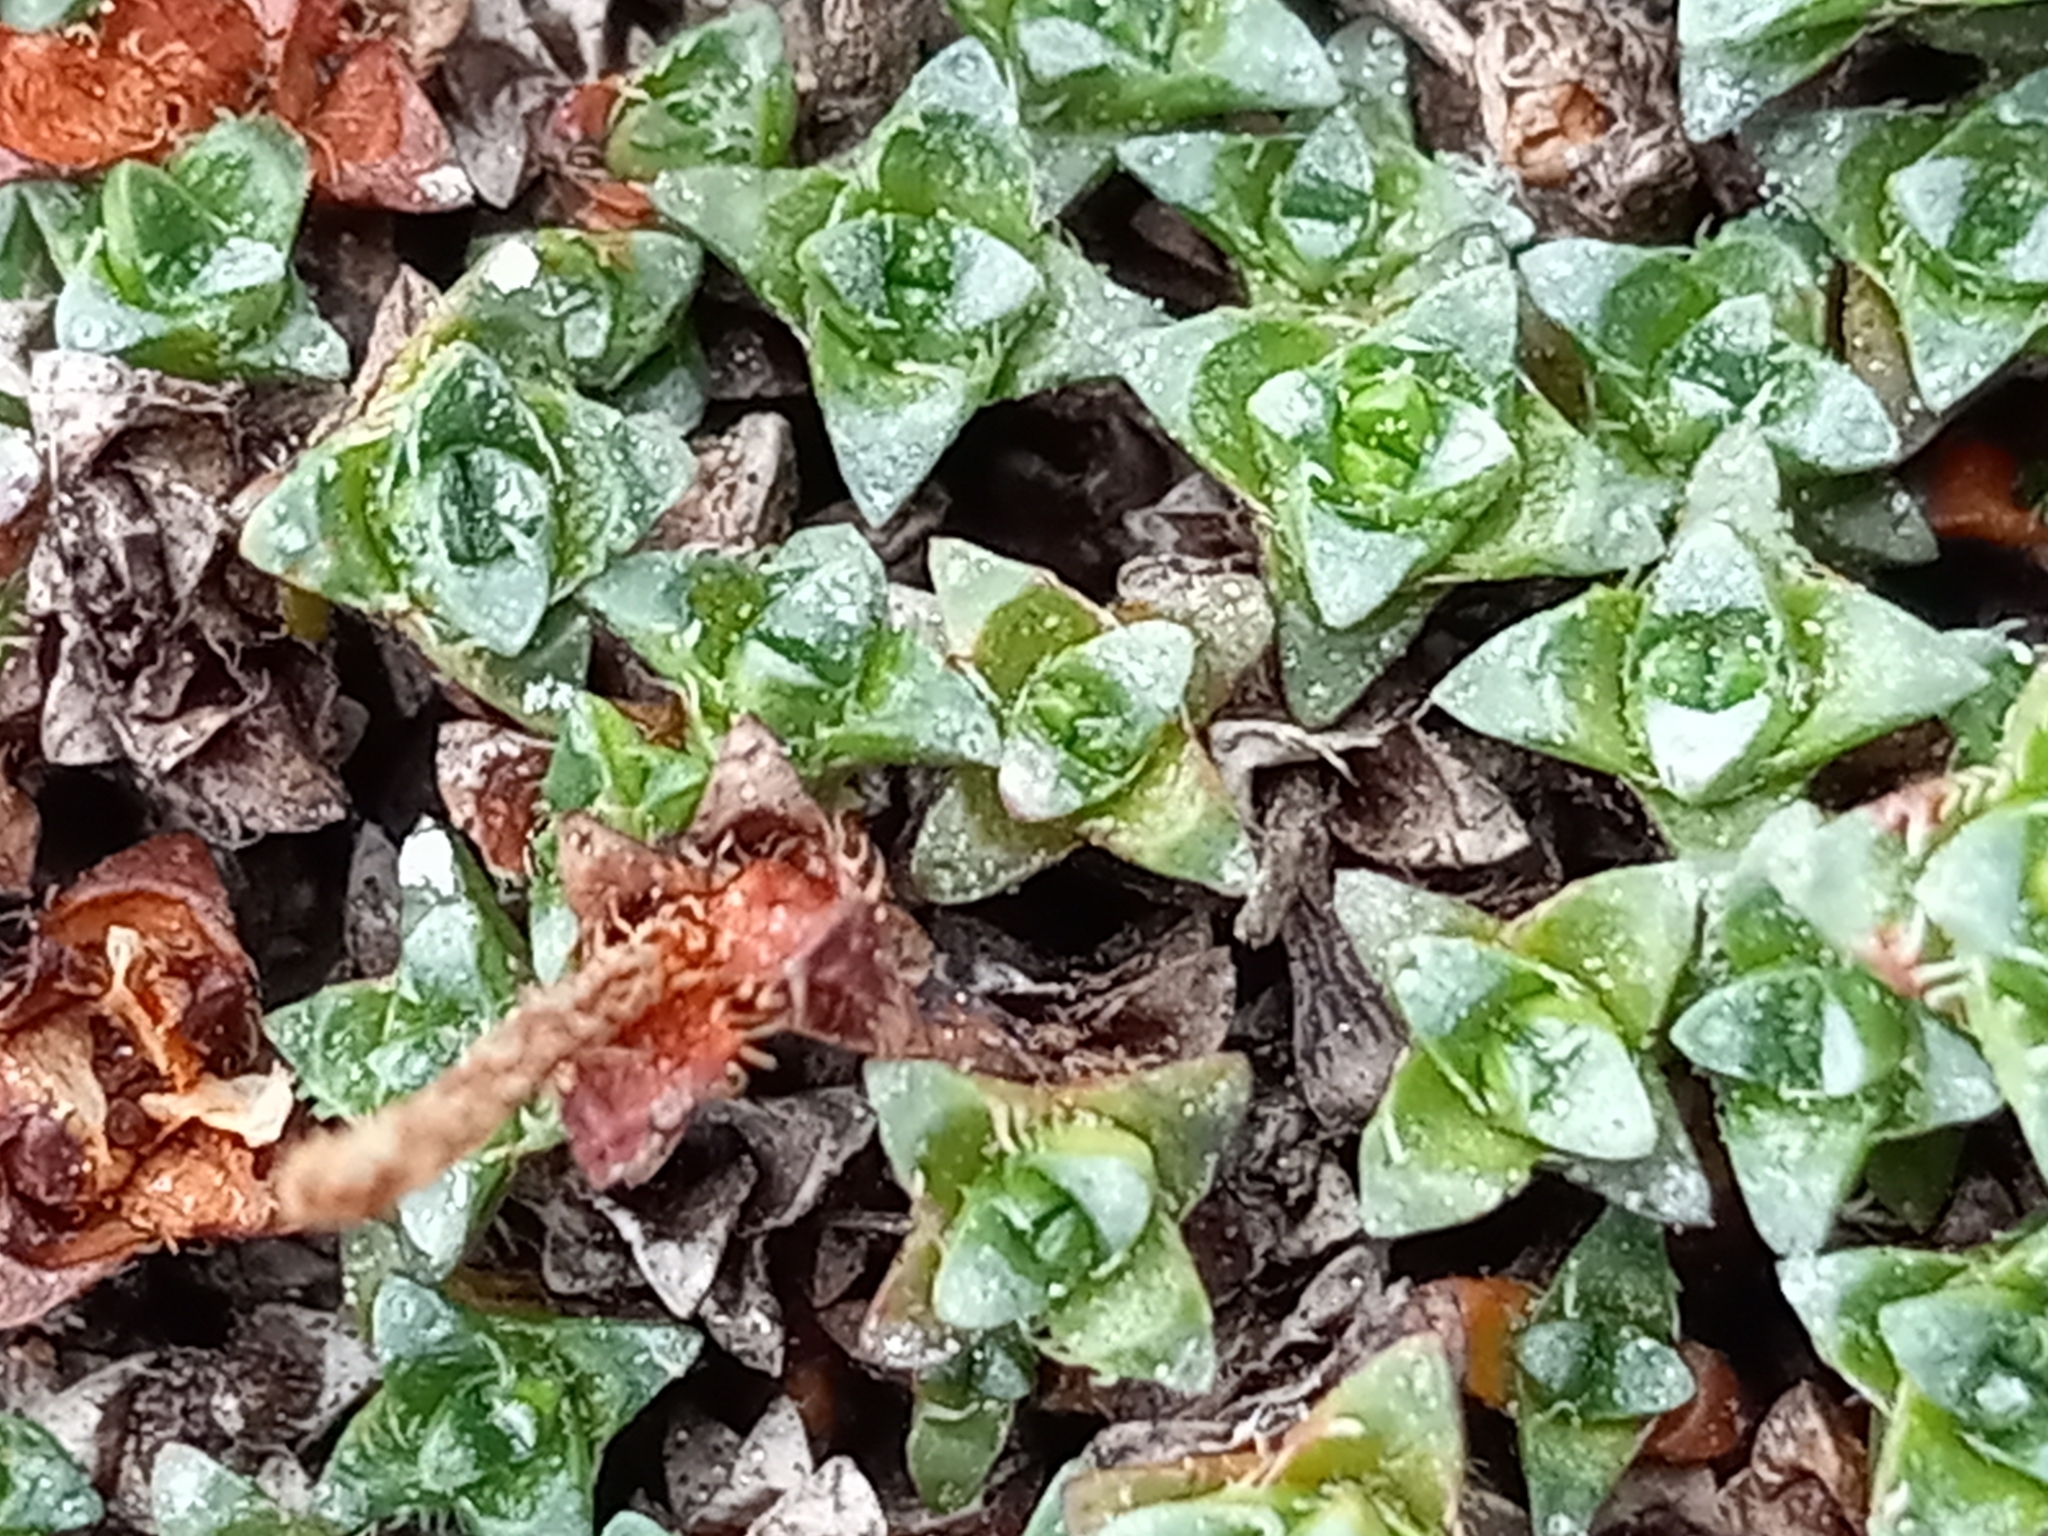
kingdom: Plantae
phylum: Tracheophyta
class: Magnoliopsida
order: Saxifragales
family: Saxifragaceae
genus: Saxifraga
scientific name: Saxifraga oppositifolia
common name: Purple saxifrage
